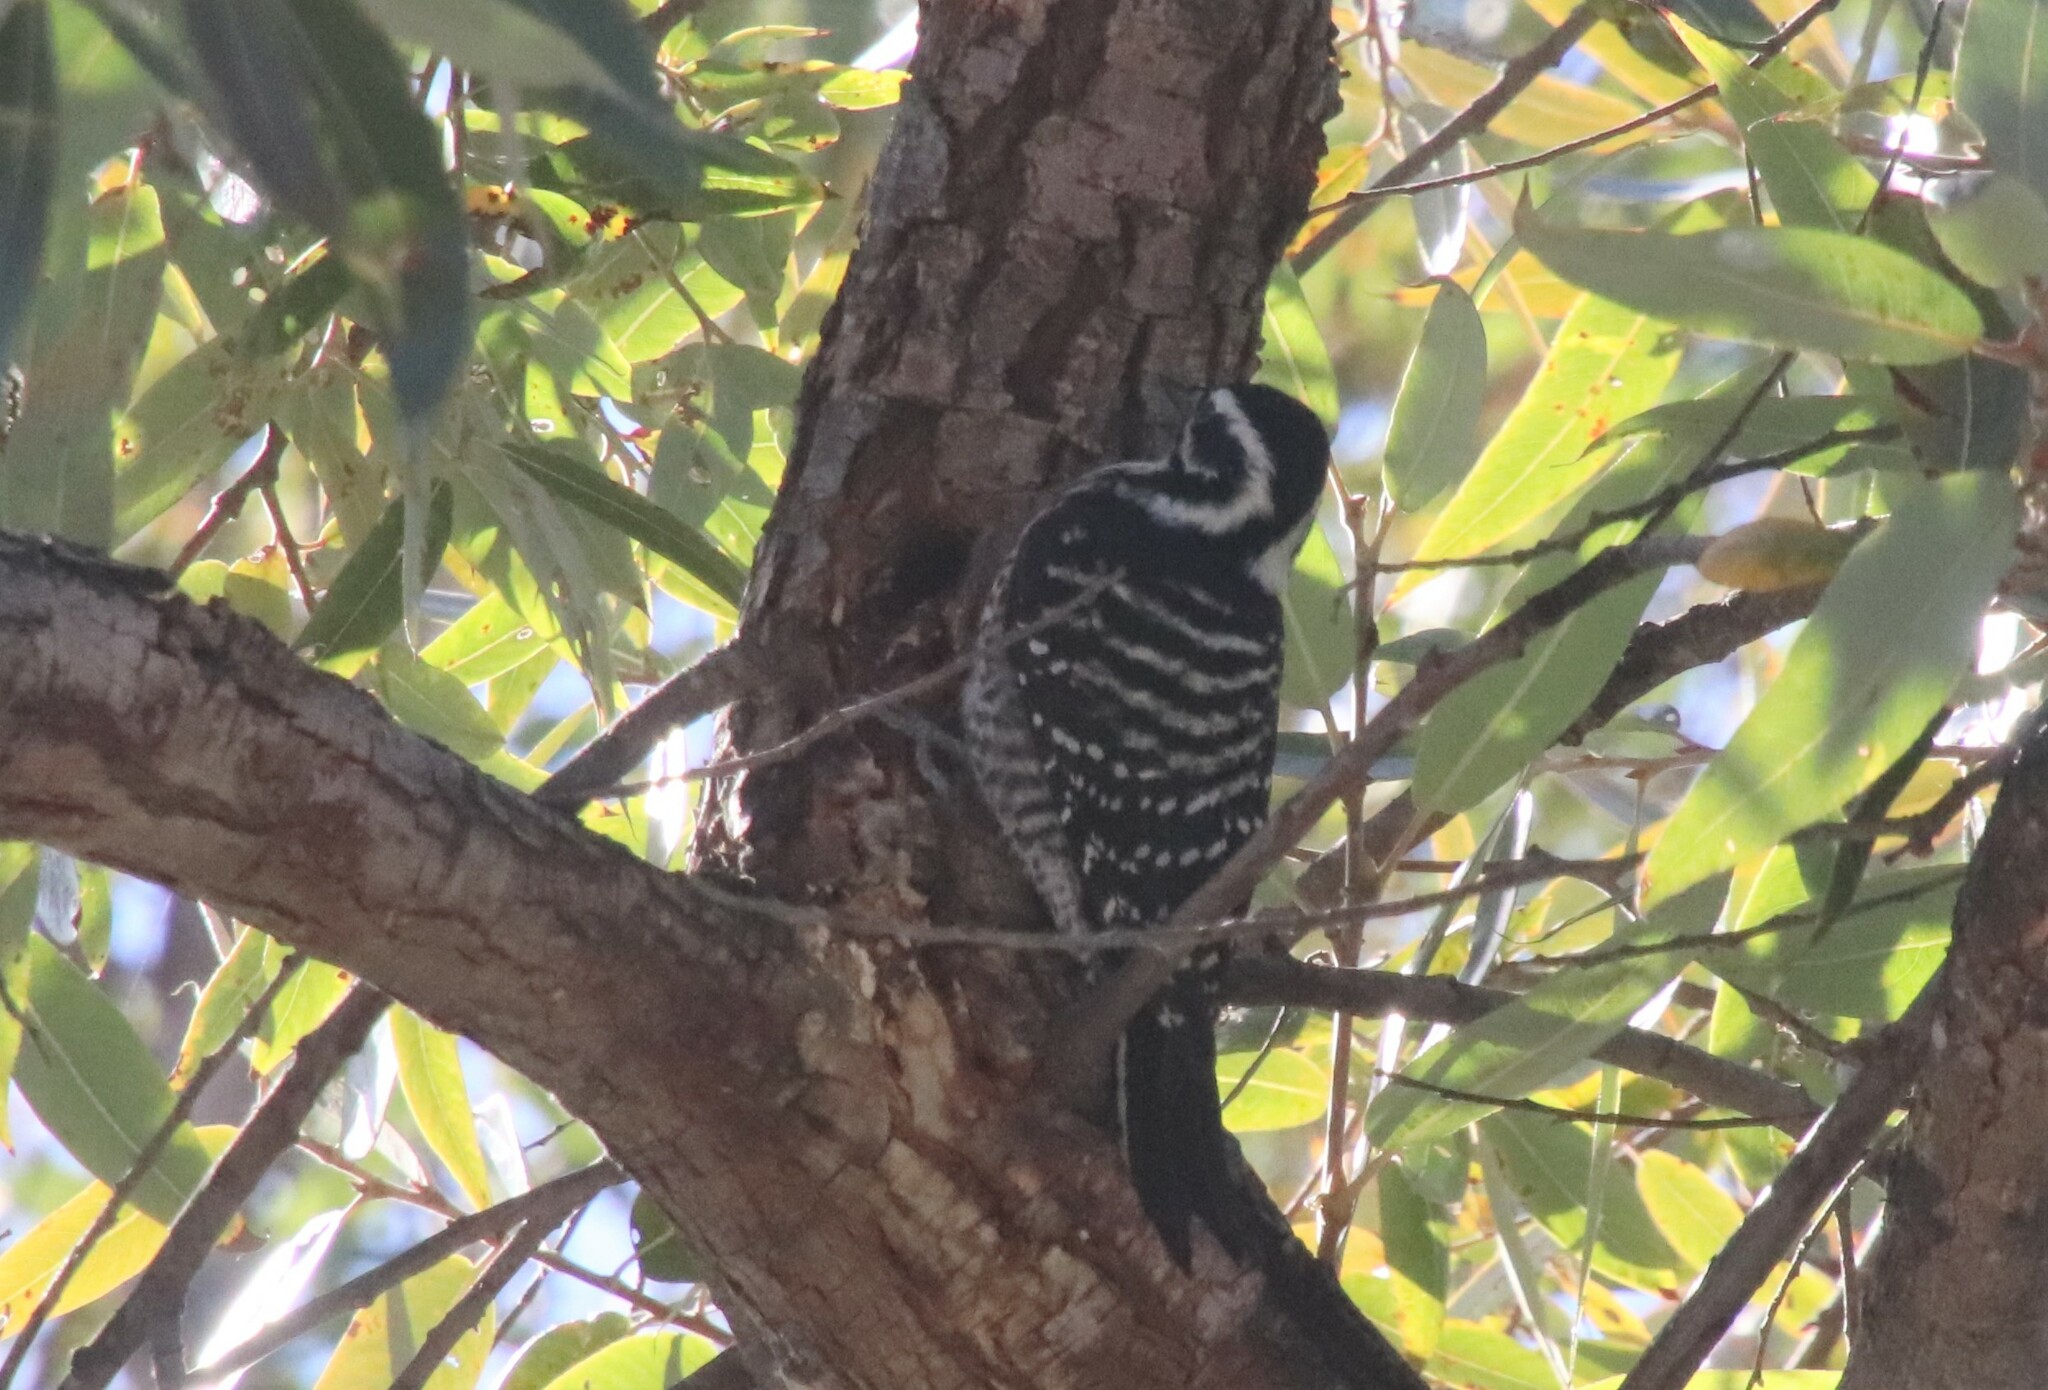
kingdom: Animalia
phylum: Chordata
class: Aves
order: Piciformes
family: Picidae
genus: Dryobates
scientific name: Dryobates nuttallii
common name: Nuttall's woodpecker
